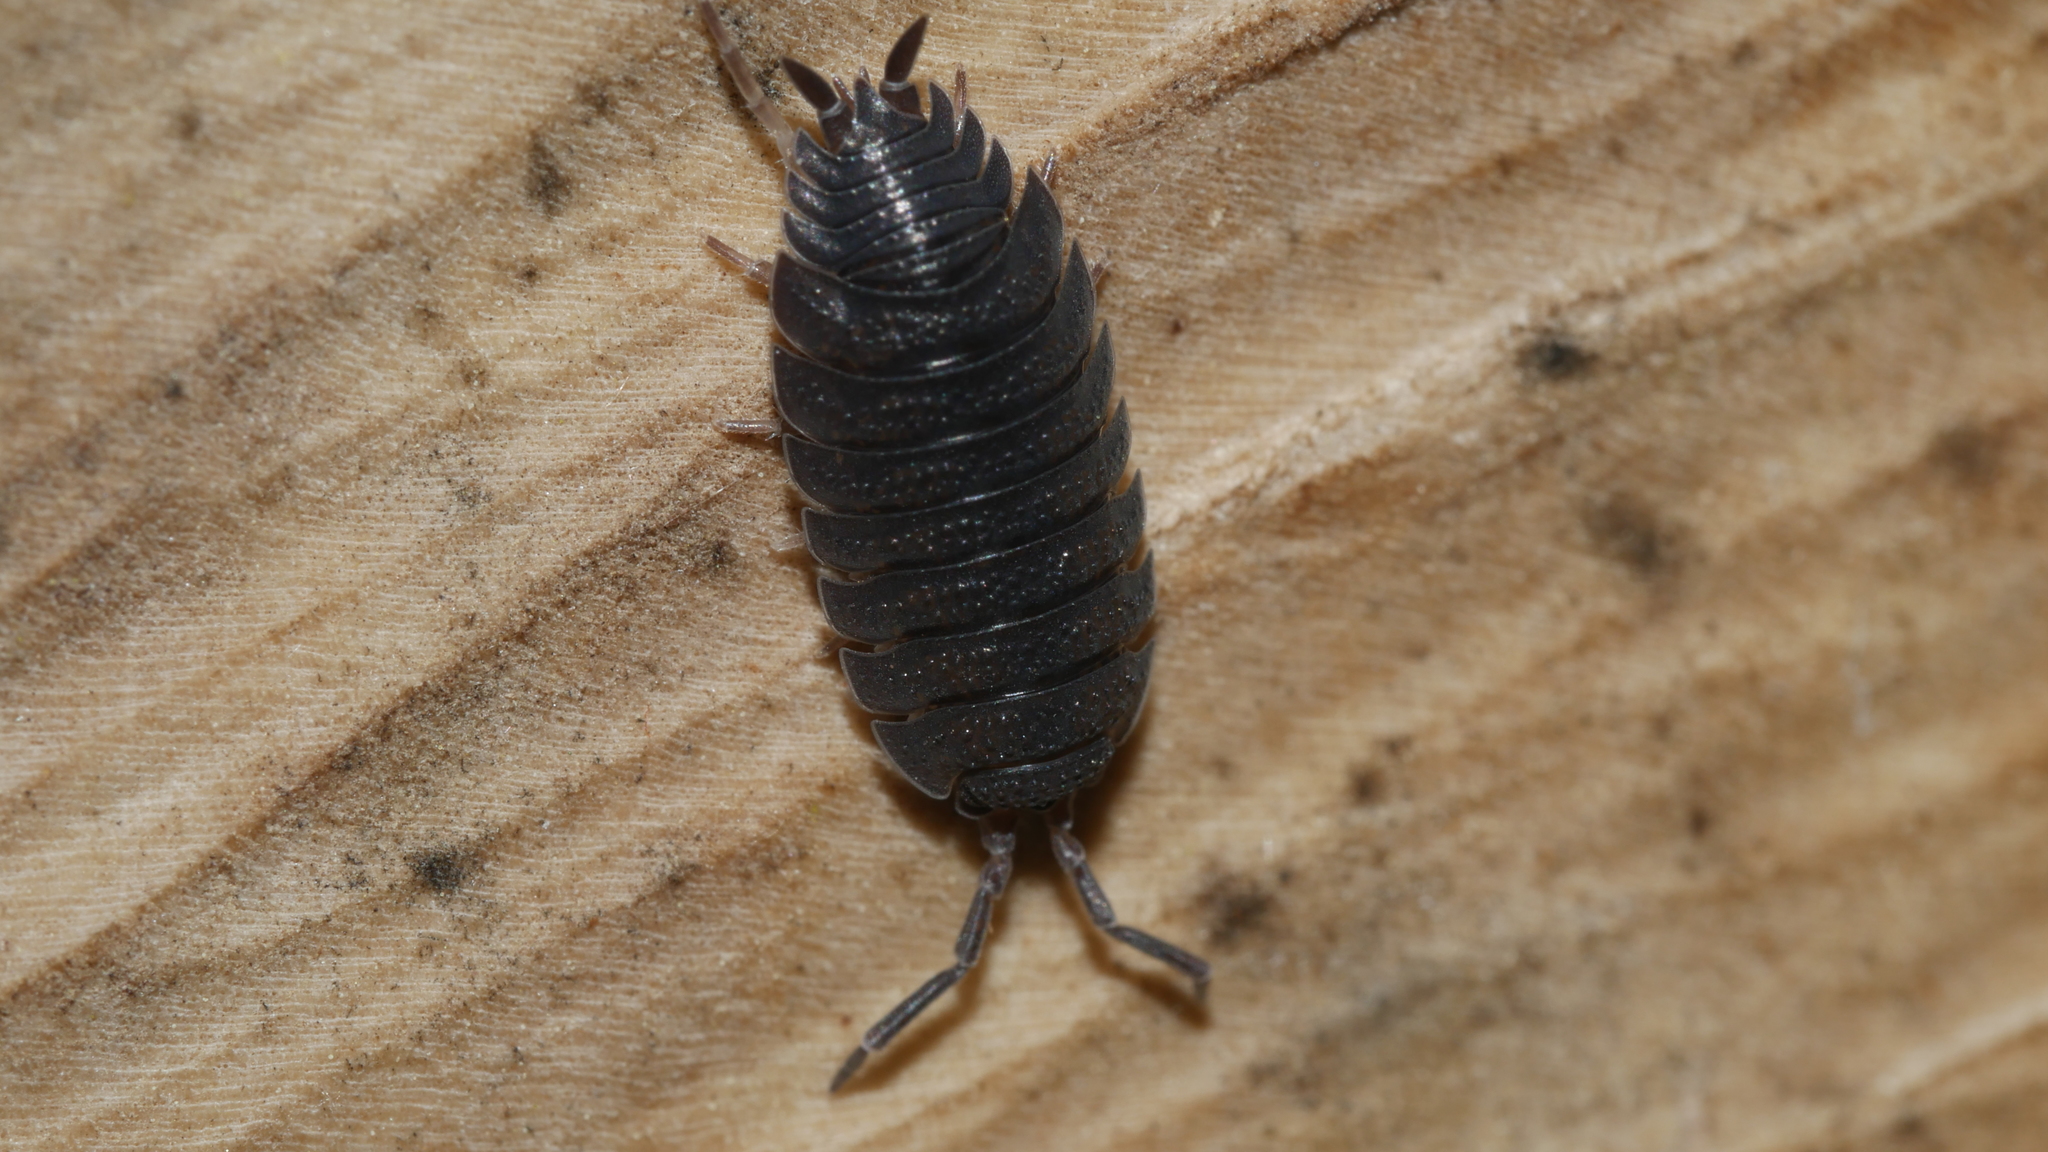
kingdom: Animalia
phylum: Arthropoda
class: Malacostraca
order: Isopoda
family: Porcellionidae
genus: Porcellio
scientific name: Porcellio scaber
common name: Common rough woodlouse
